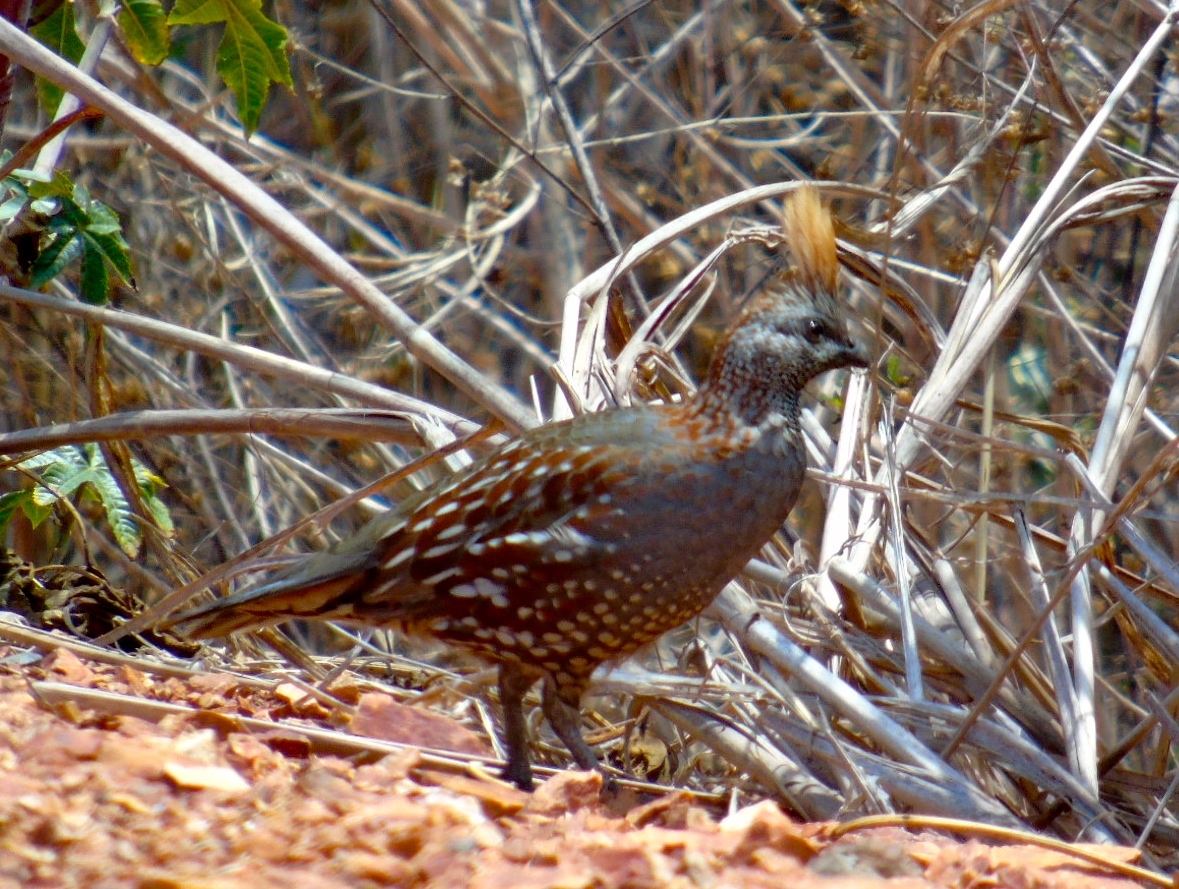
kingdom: Animalia
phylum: Chordata
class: Aves
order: Galliformes
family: Odontophoridae
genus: Callipepla
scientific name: Callipepla douglasii
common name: Elegant quail
